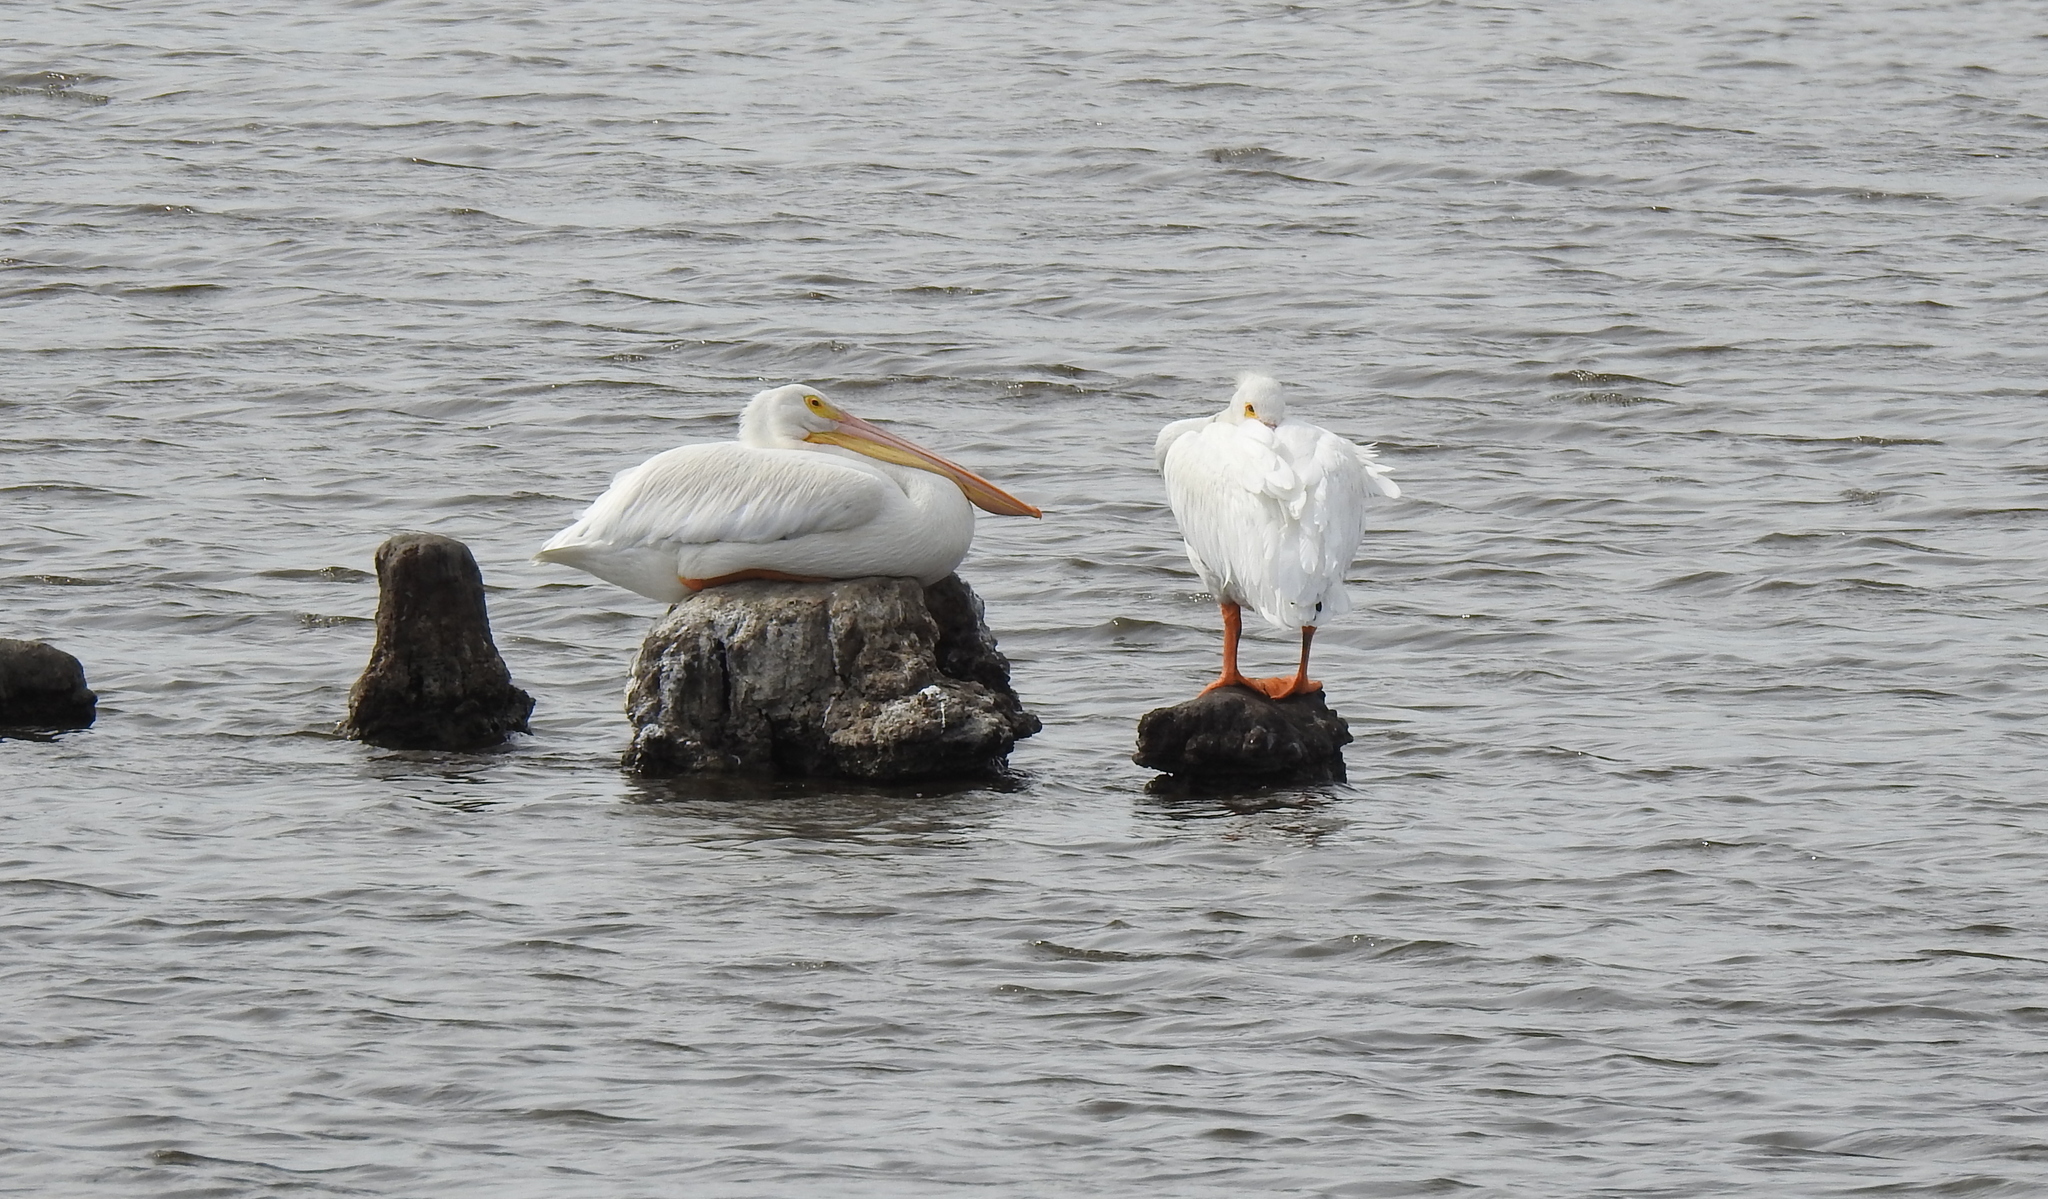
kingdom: Animalia
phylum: Chordata
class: Aves
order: Pelecaniformes
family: Pelecanidae
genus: Pelecanus
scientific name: Pelecanus erythrorhynchos
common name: American white pelican
